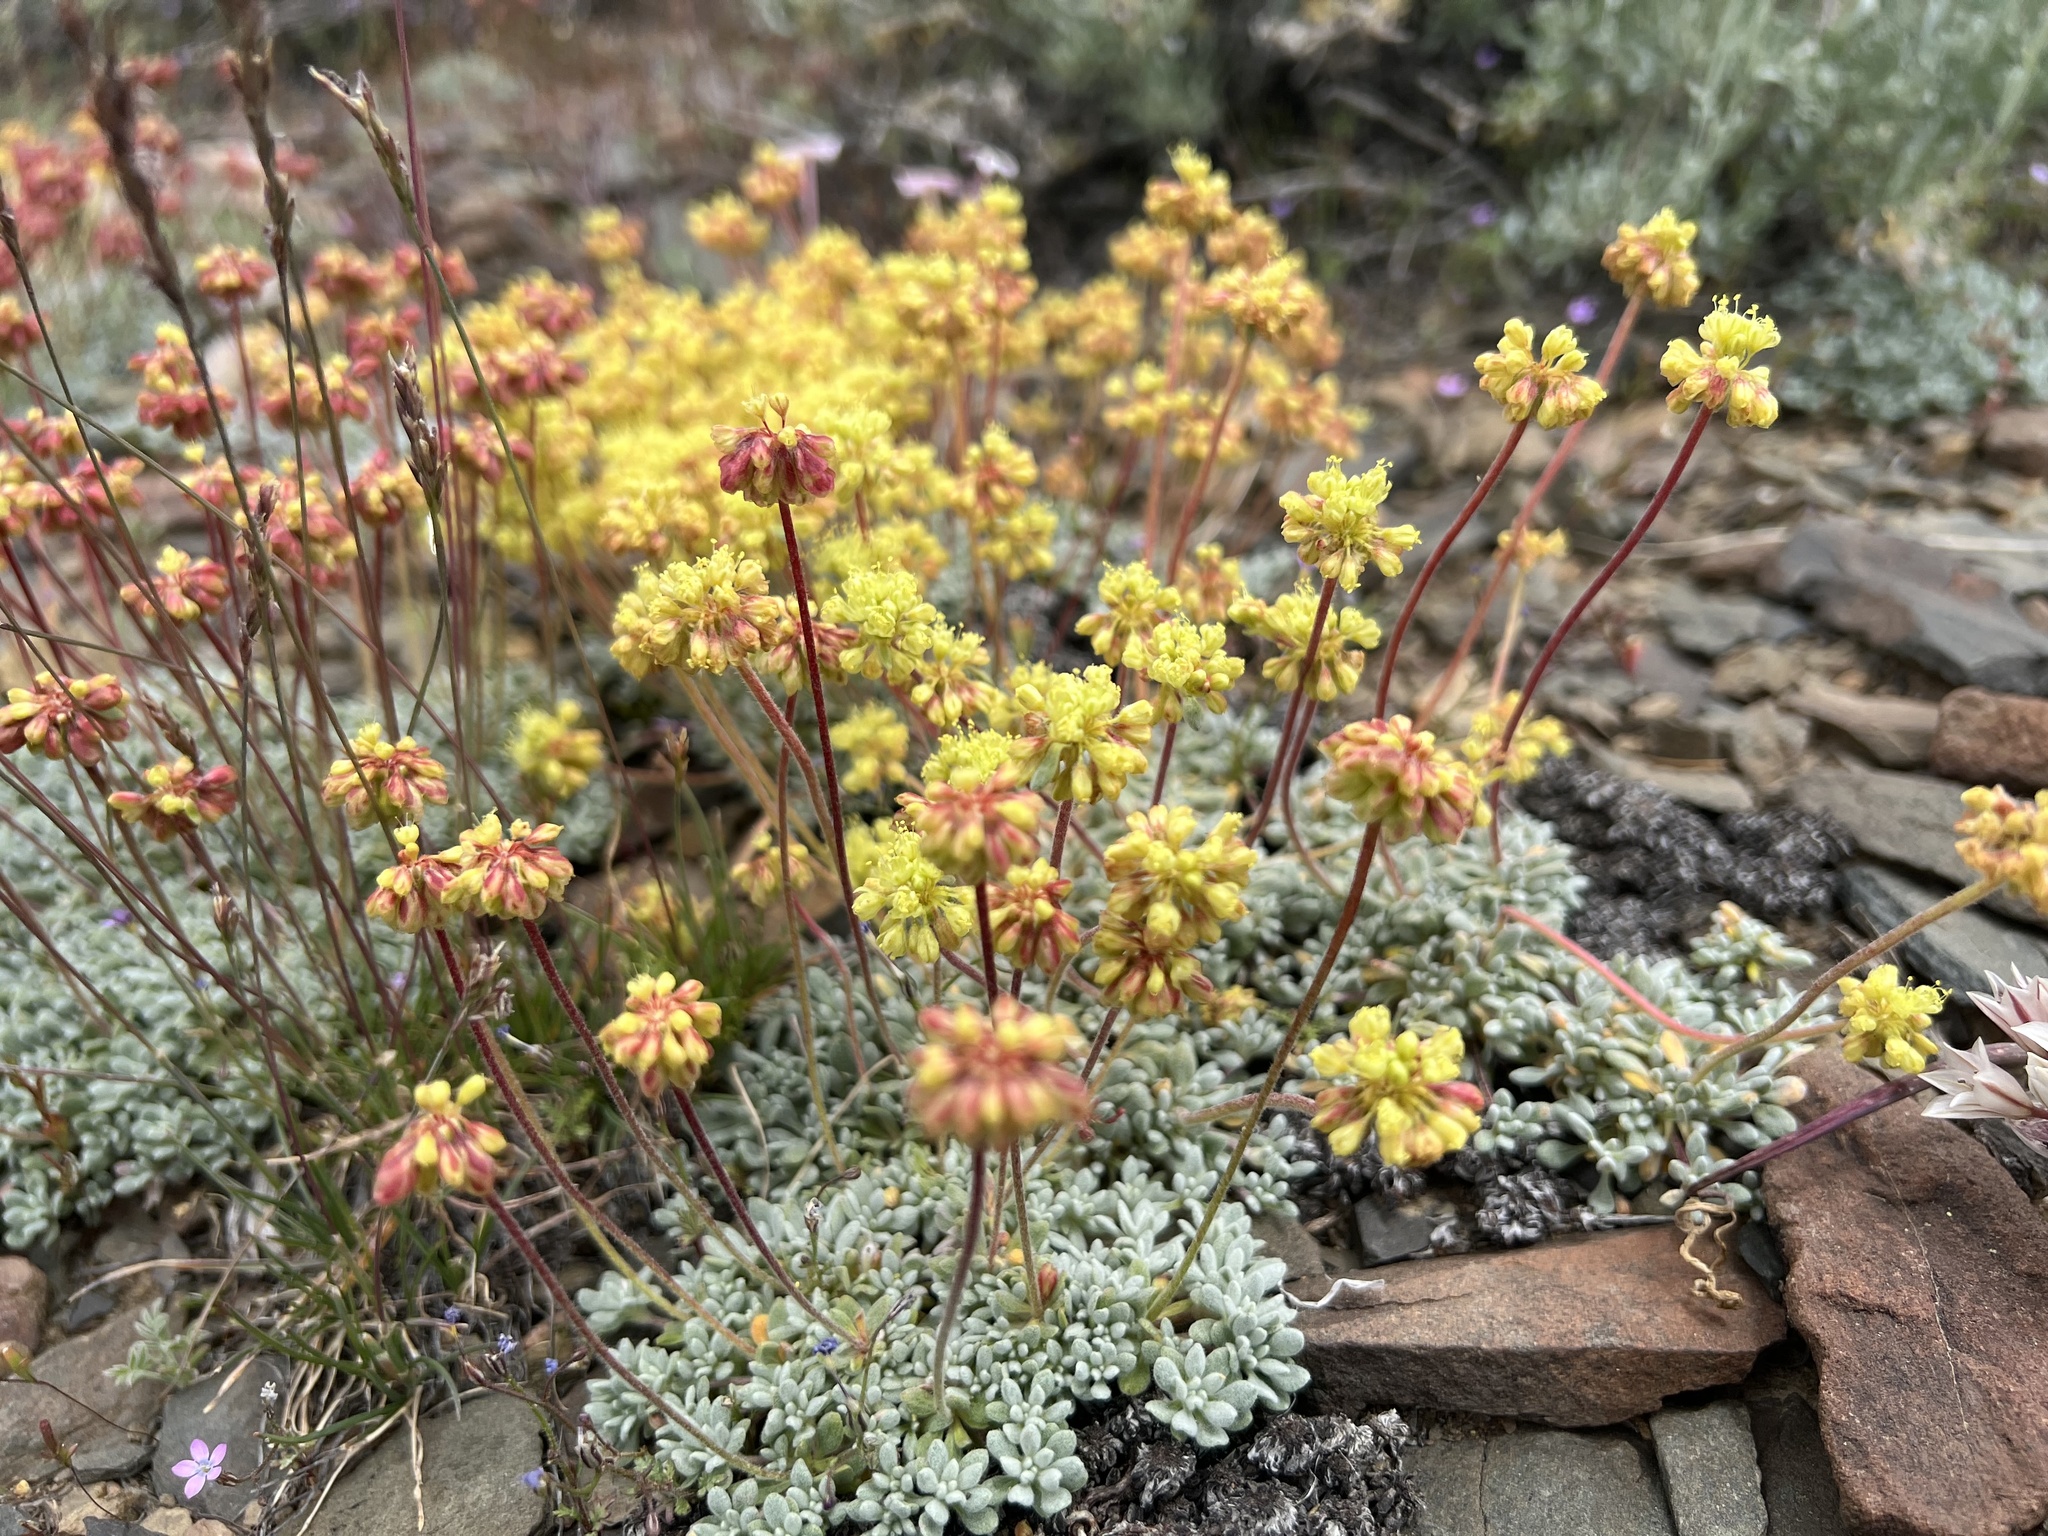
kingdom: Plantae
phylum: Tracheophyta
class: Magnoliopsida
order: Caryophyllales
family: Polygonaceae
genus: Eriogonum
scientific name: Eriogonum caespitosum
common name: Matted wild buckwheat
